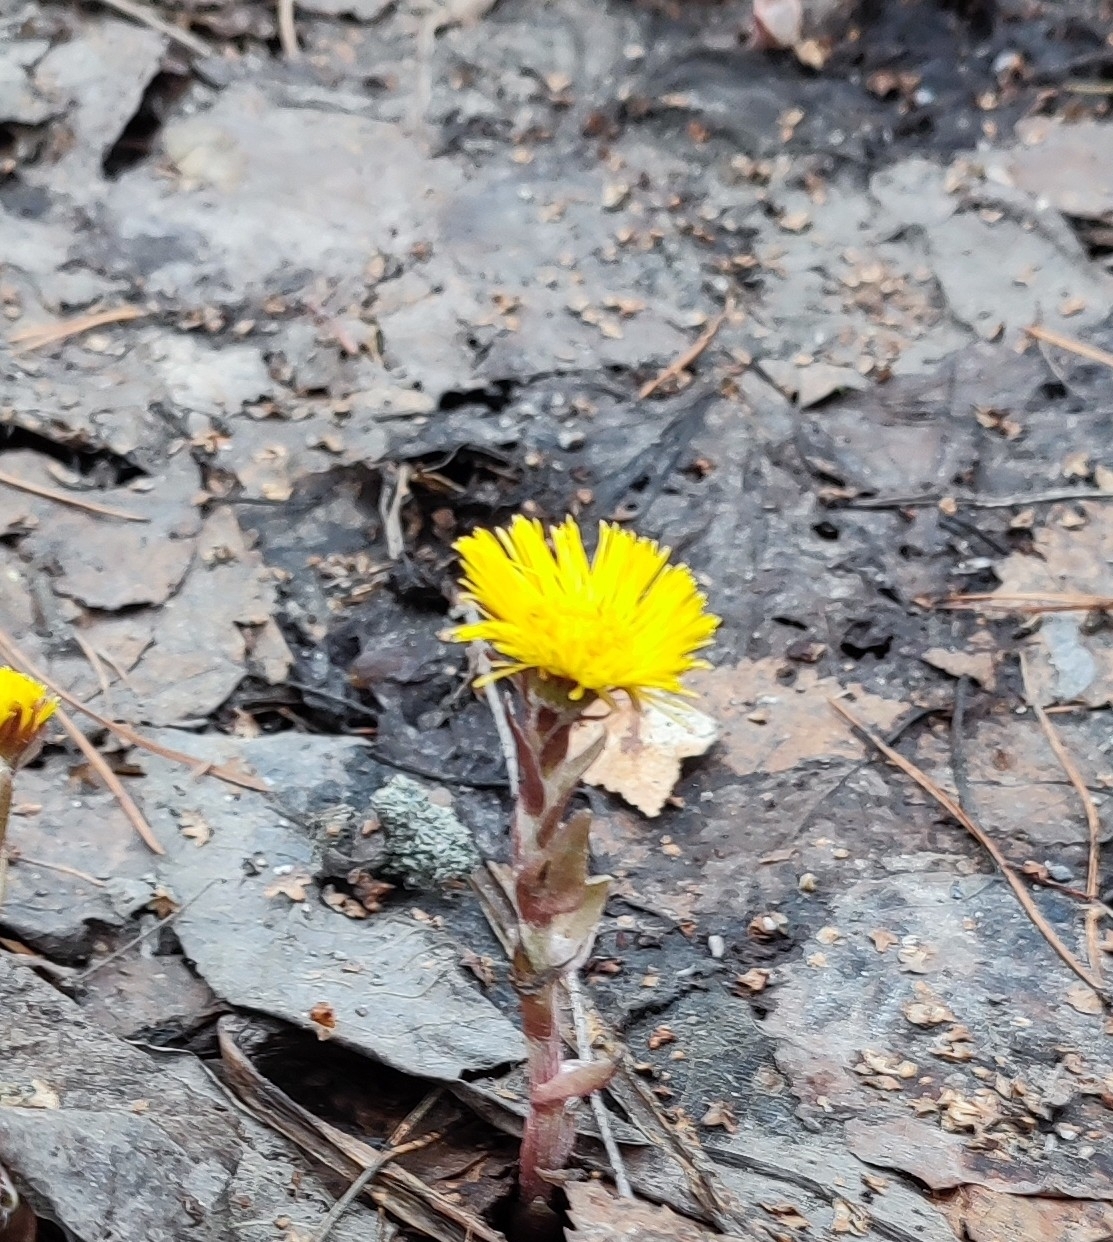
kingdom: Plantae
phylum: Tracheophyta
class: Magnoliopsida
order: Asterales
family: Asteraceae
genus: Tussilago
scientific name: Tussilago farfara
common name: Coltsfoot
